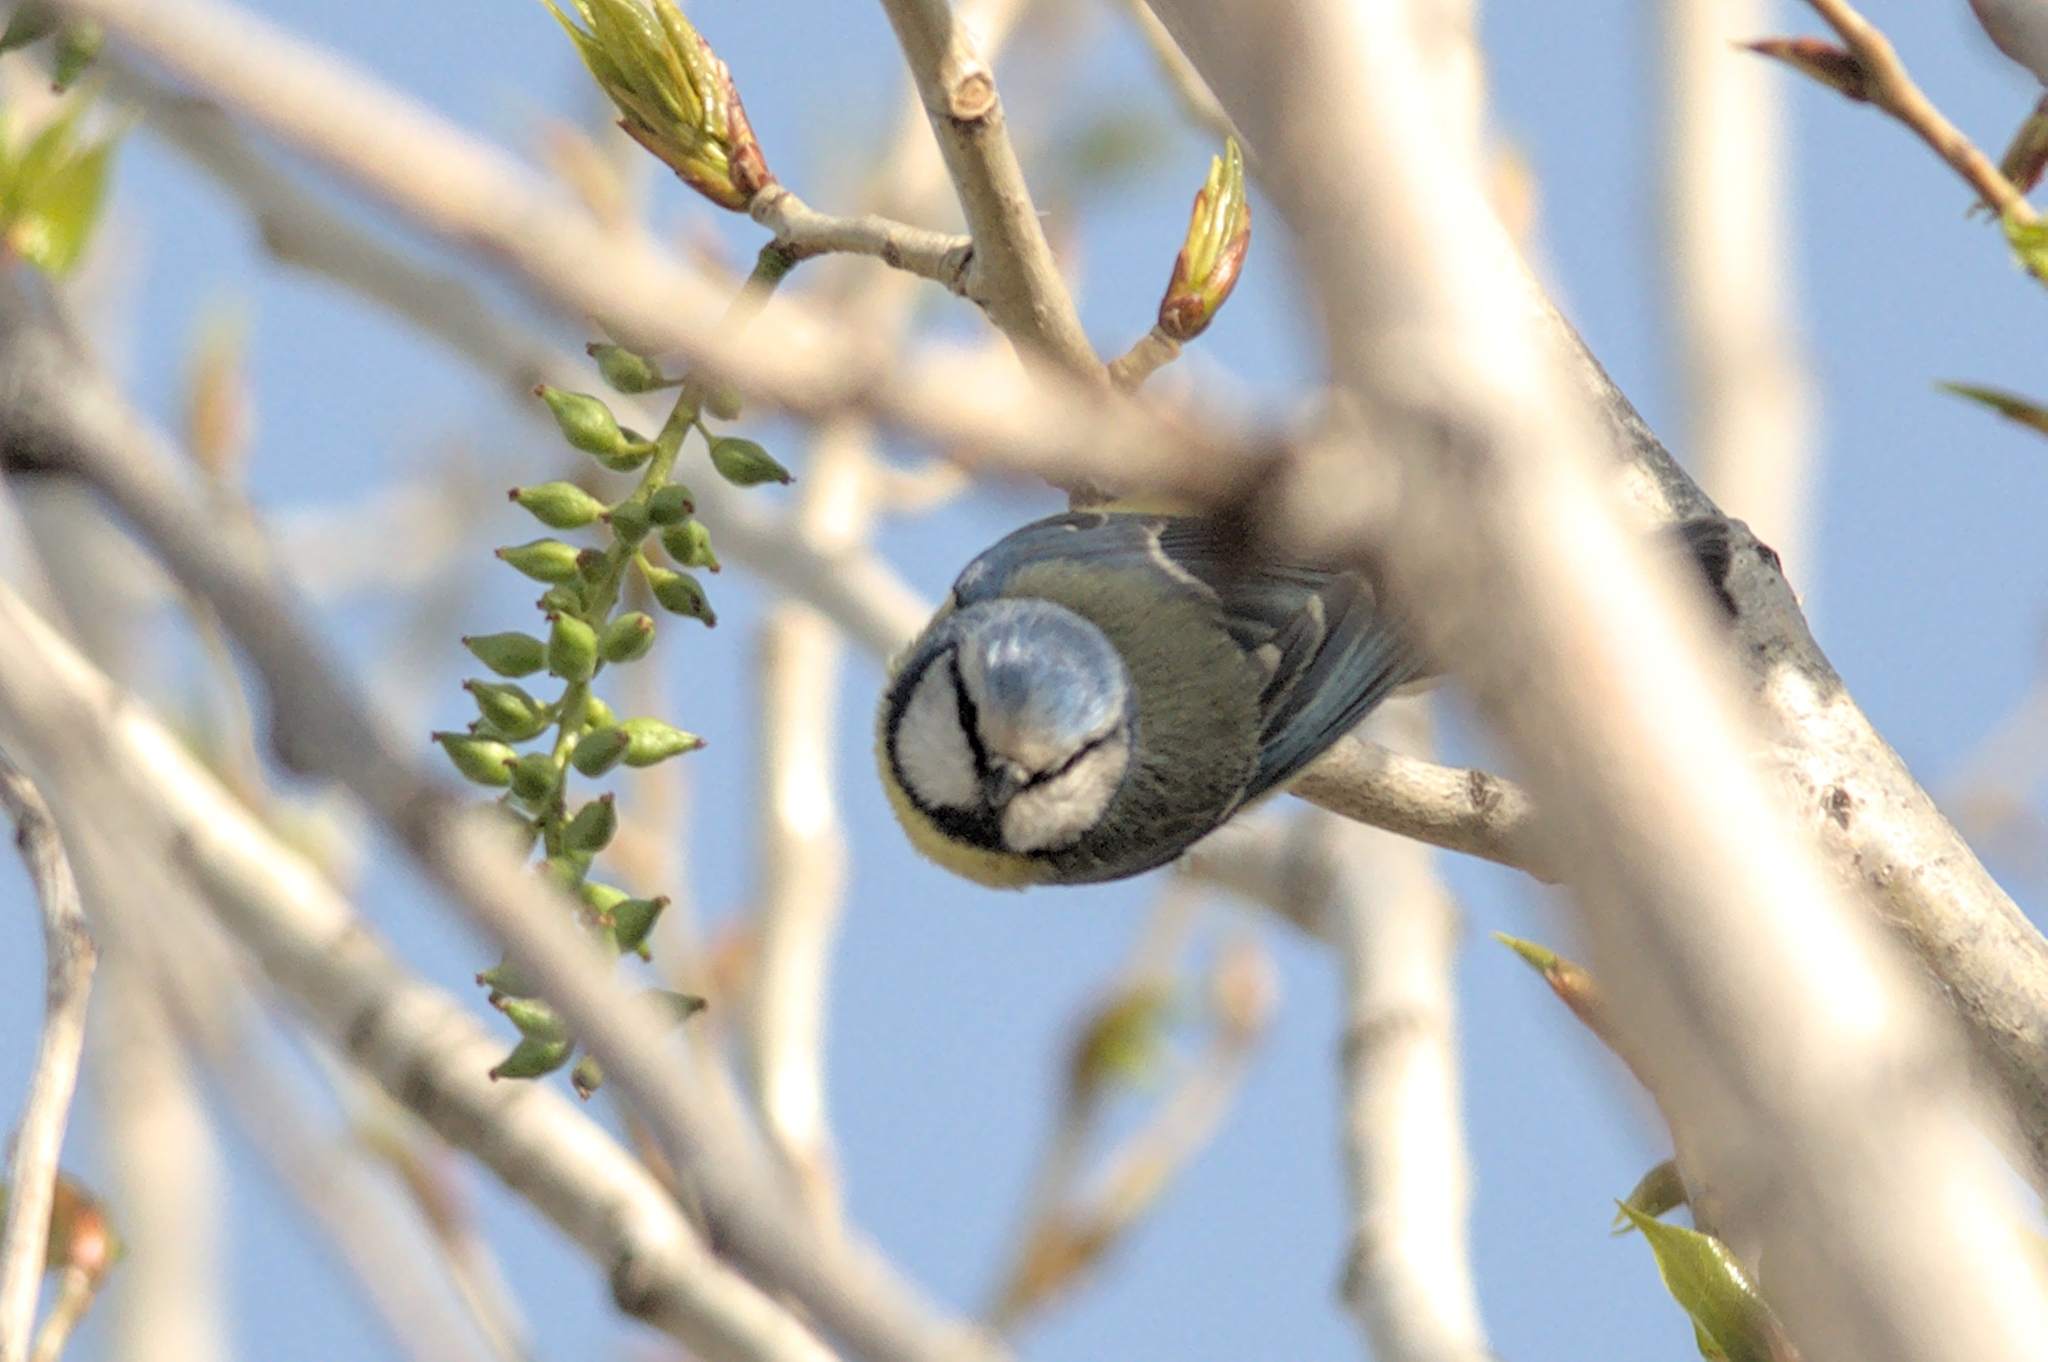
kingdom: Animalia
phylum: Chordata
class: Aves
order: Passeriformes
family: Paridae
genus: Cyanistes
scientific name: Cyanistes caeruleus
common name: Eurasian blue tit
